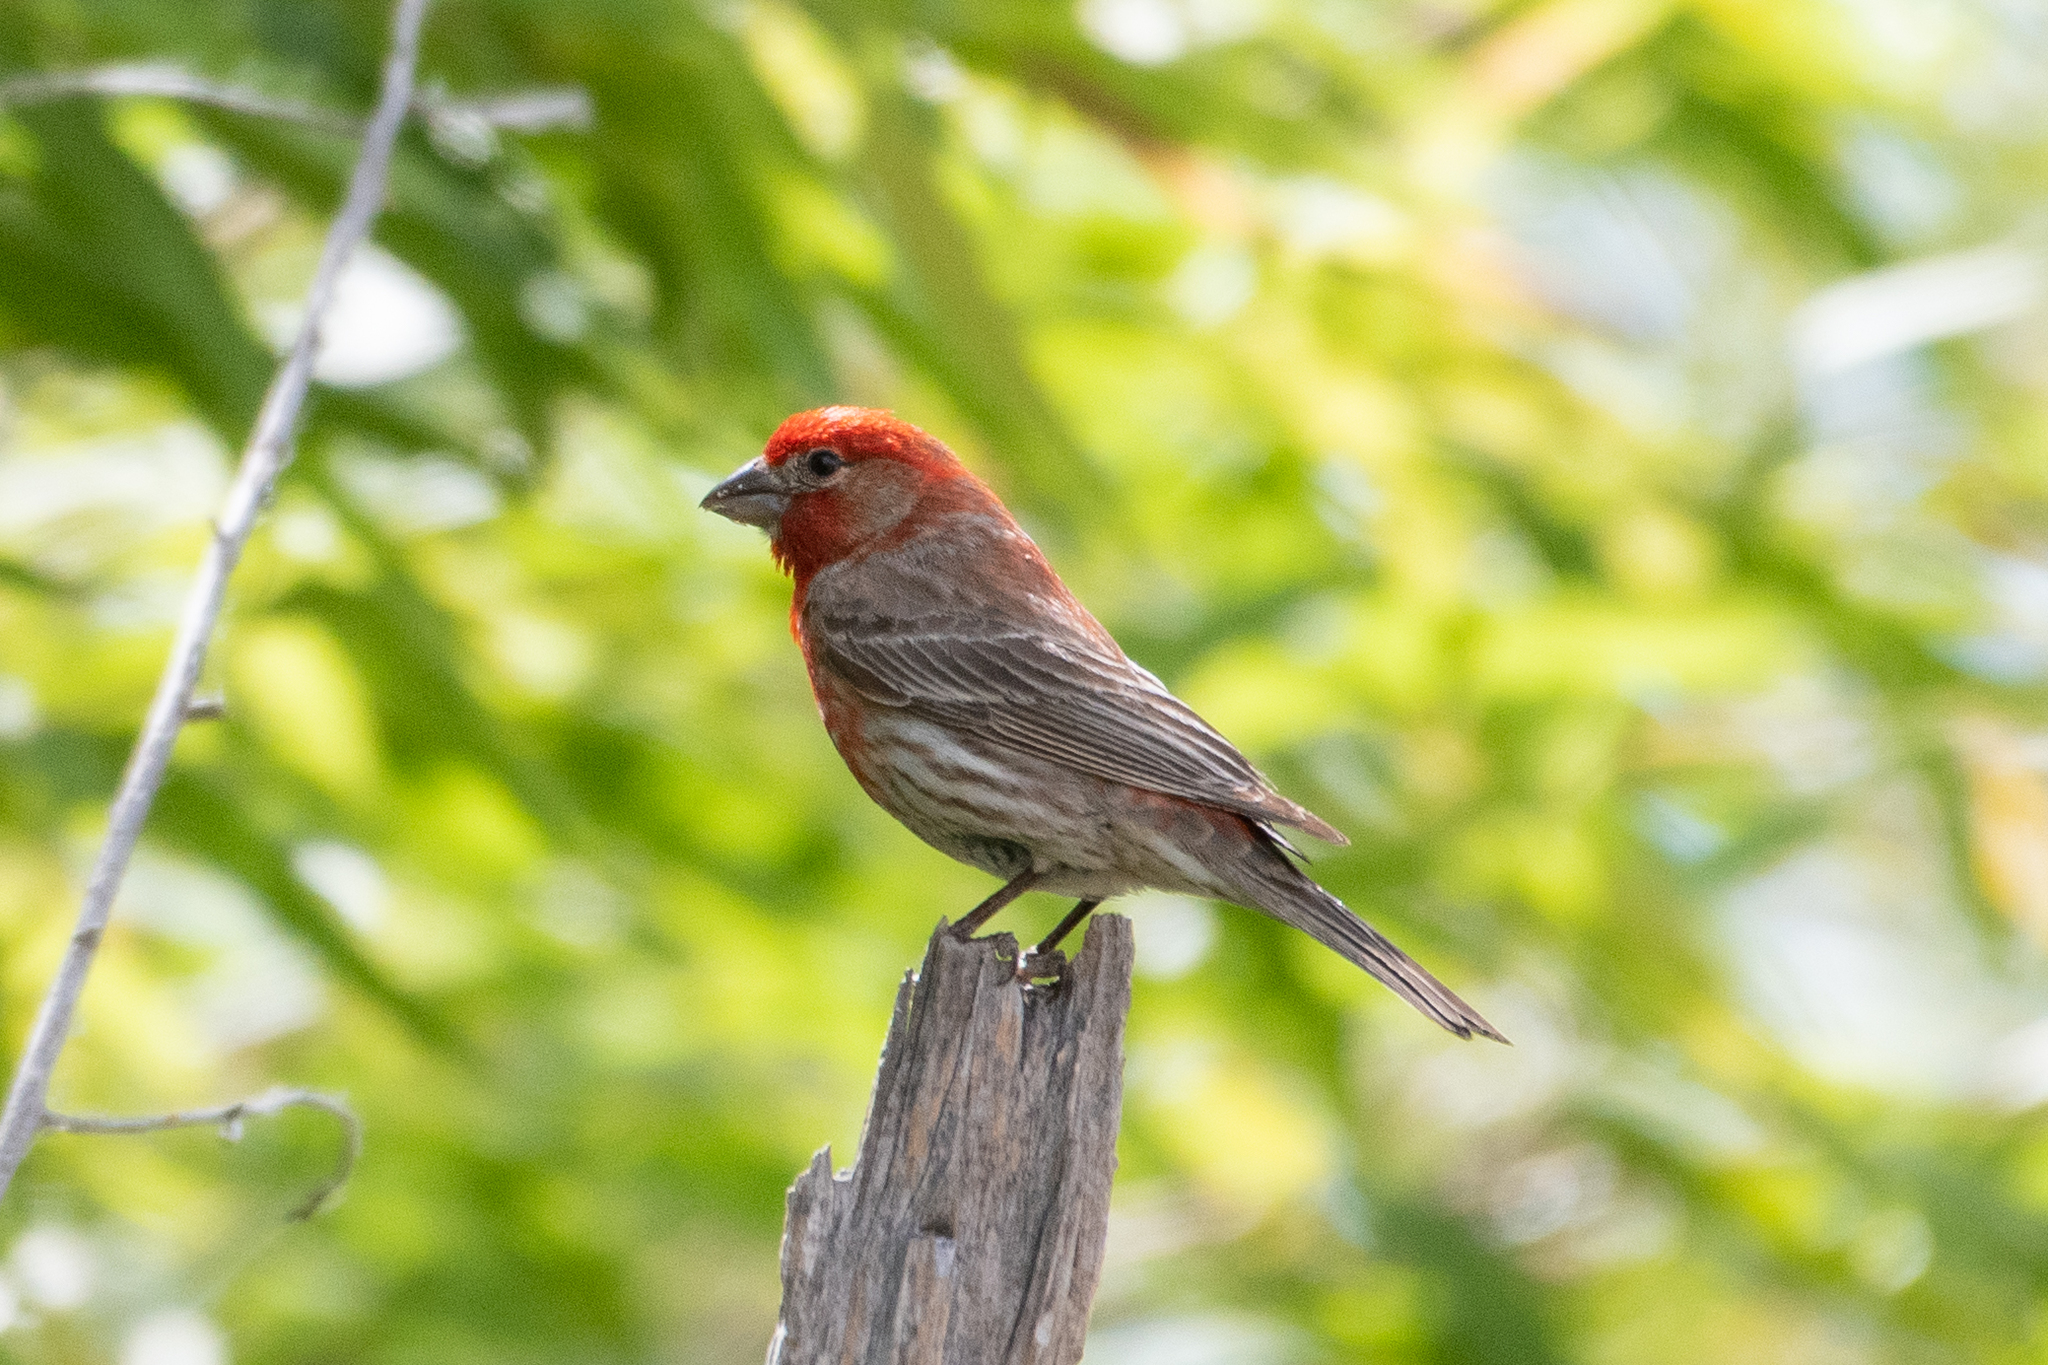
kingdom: Animalia
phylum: Chordata
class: Aves
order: Passeriformes
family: Fringillidae
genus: Haemorhous
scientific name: Haemorhous mexicanus
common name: House finch
